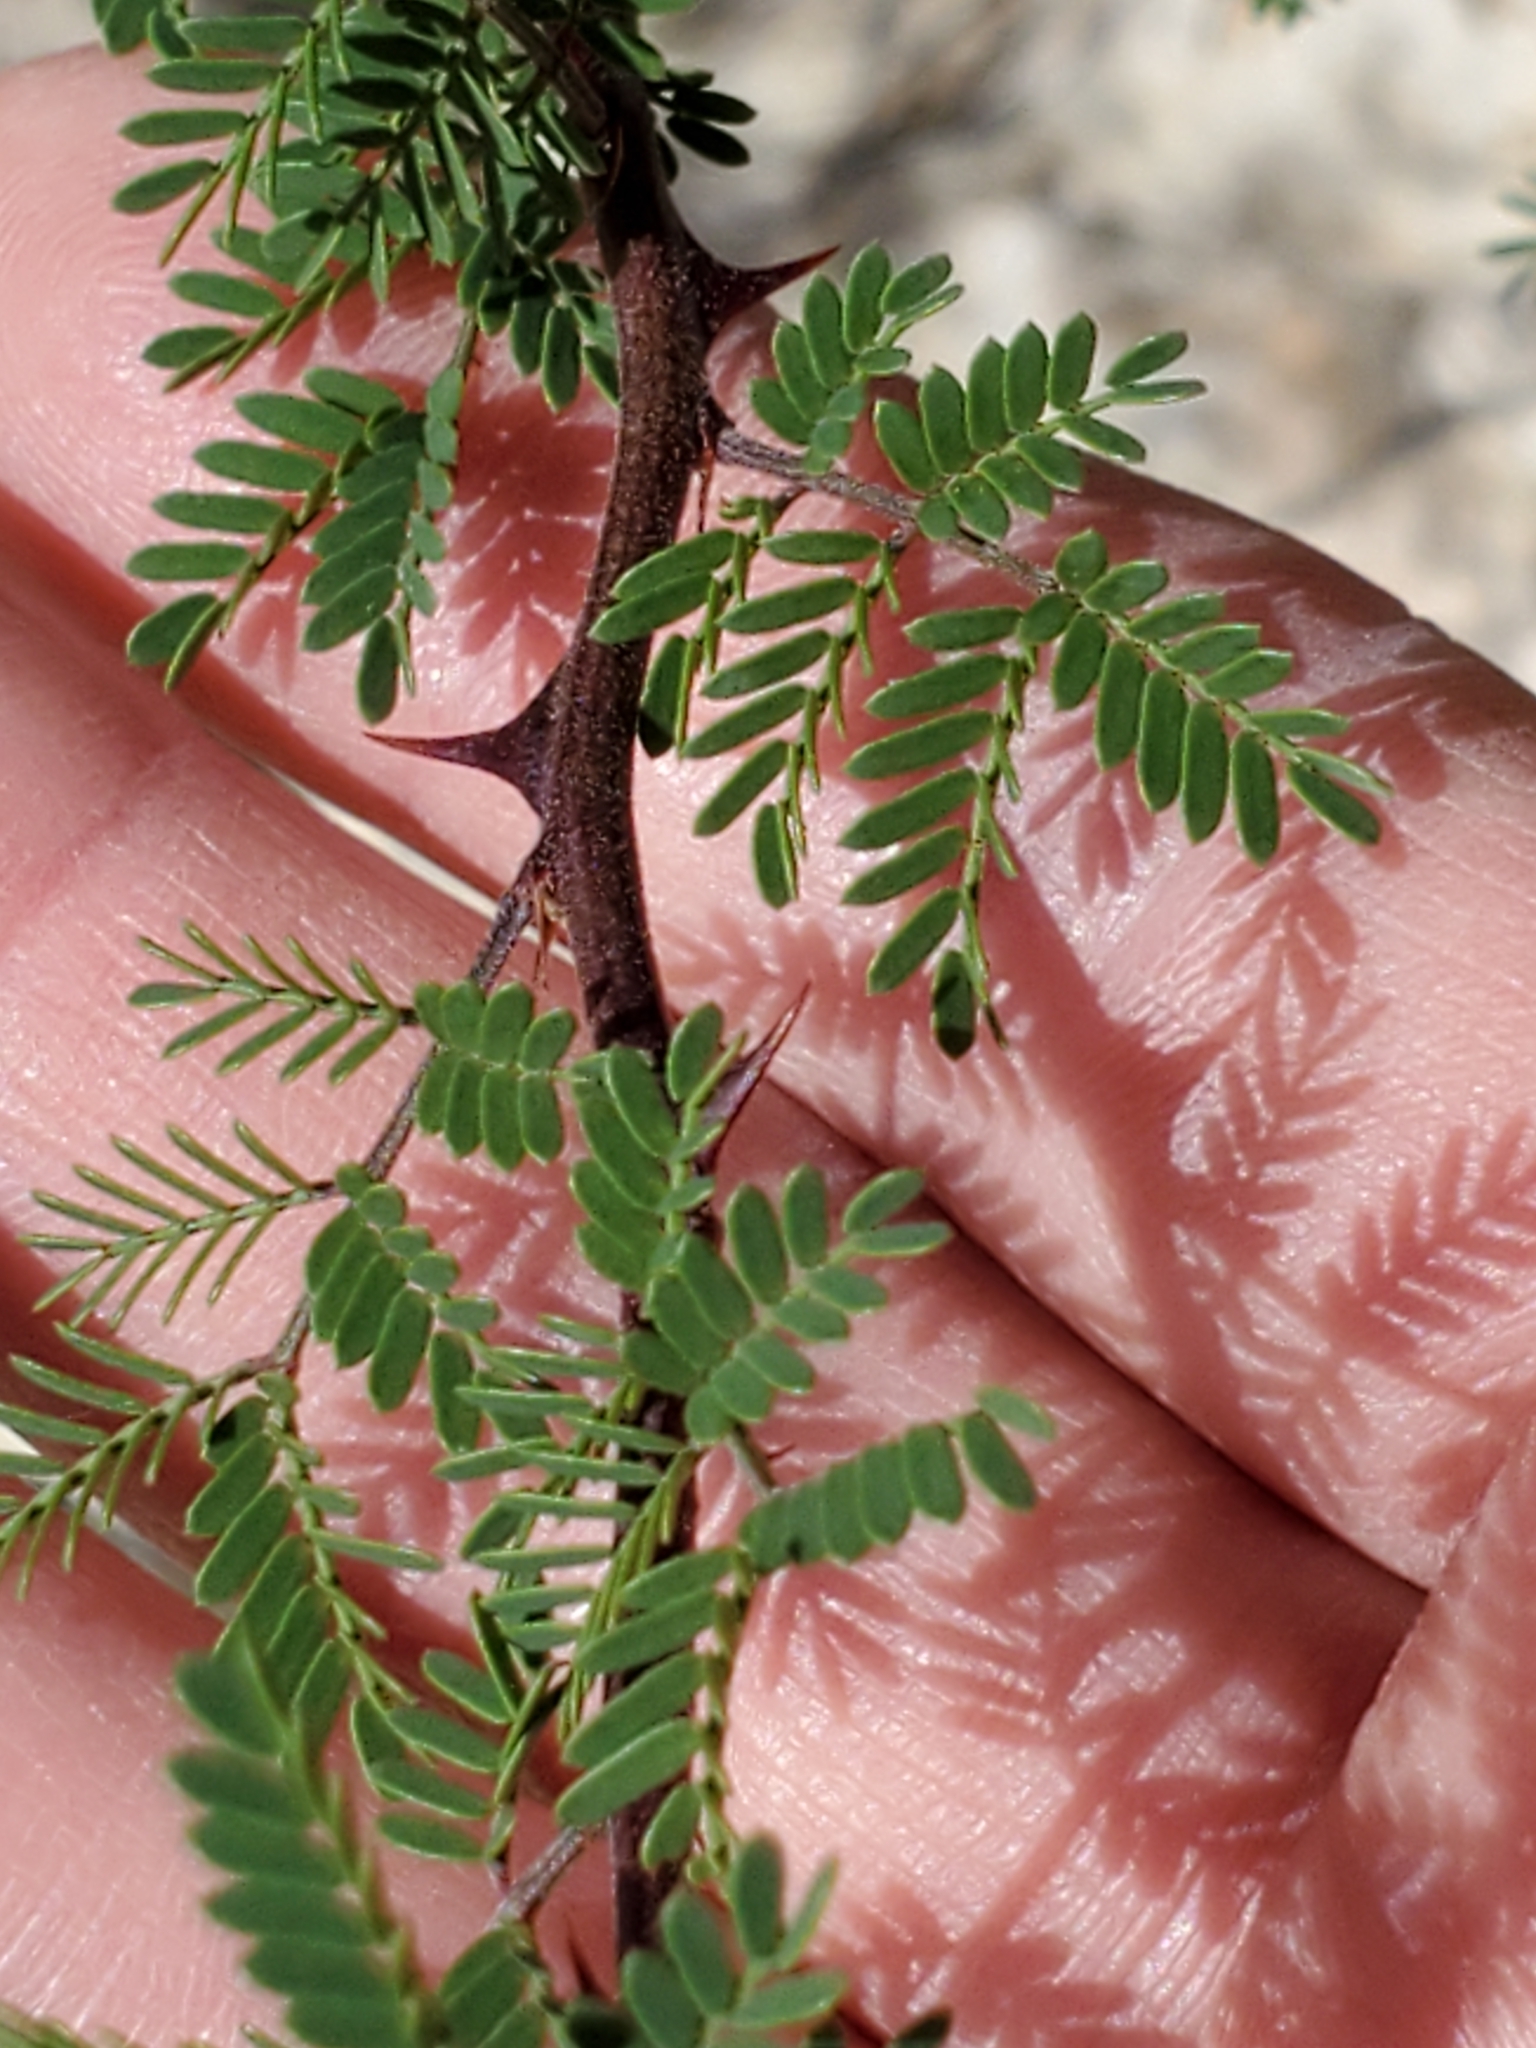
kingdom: Plantae
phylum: Tracheophyta
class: Magnoliopsida
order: Fabales
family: Fabaceae
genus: Mimosa
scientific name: Mimosa texana
